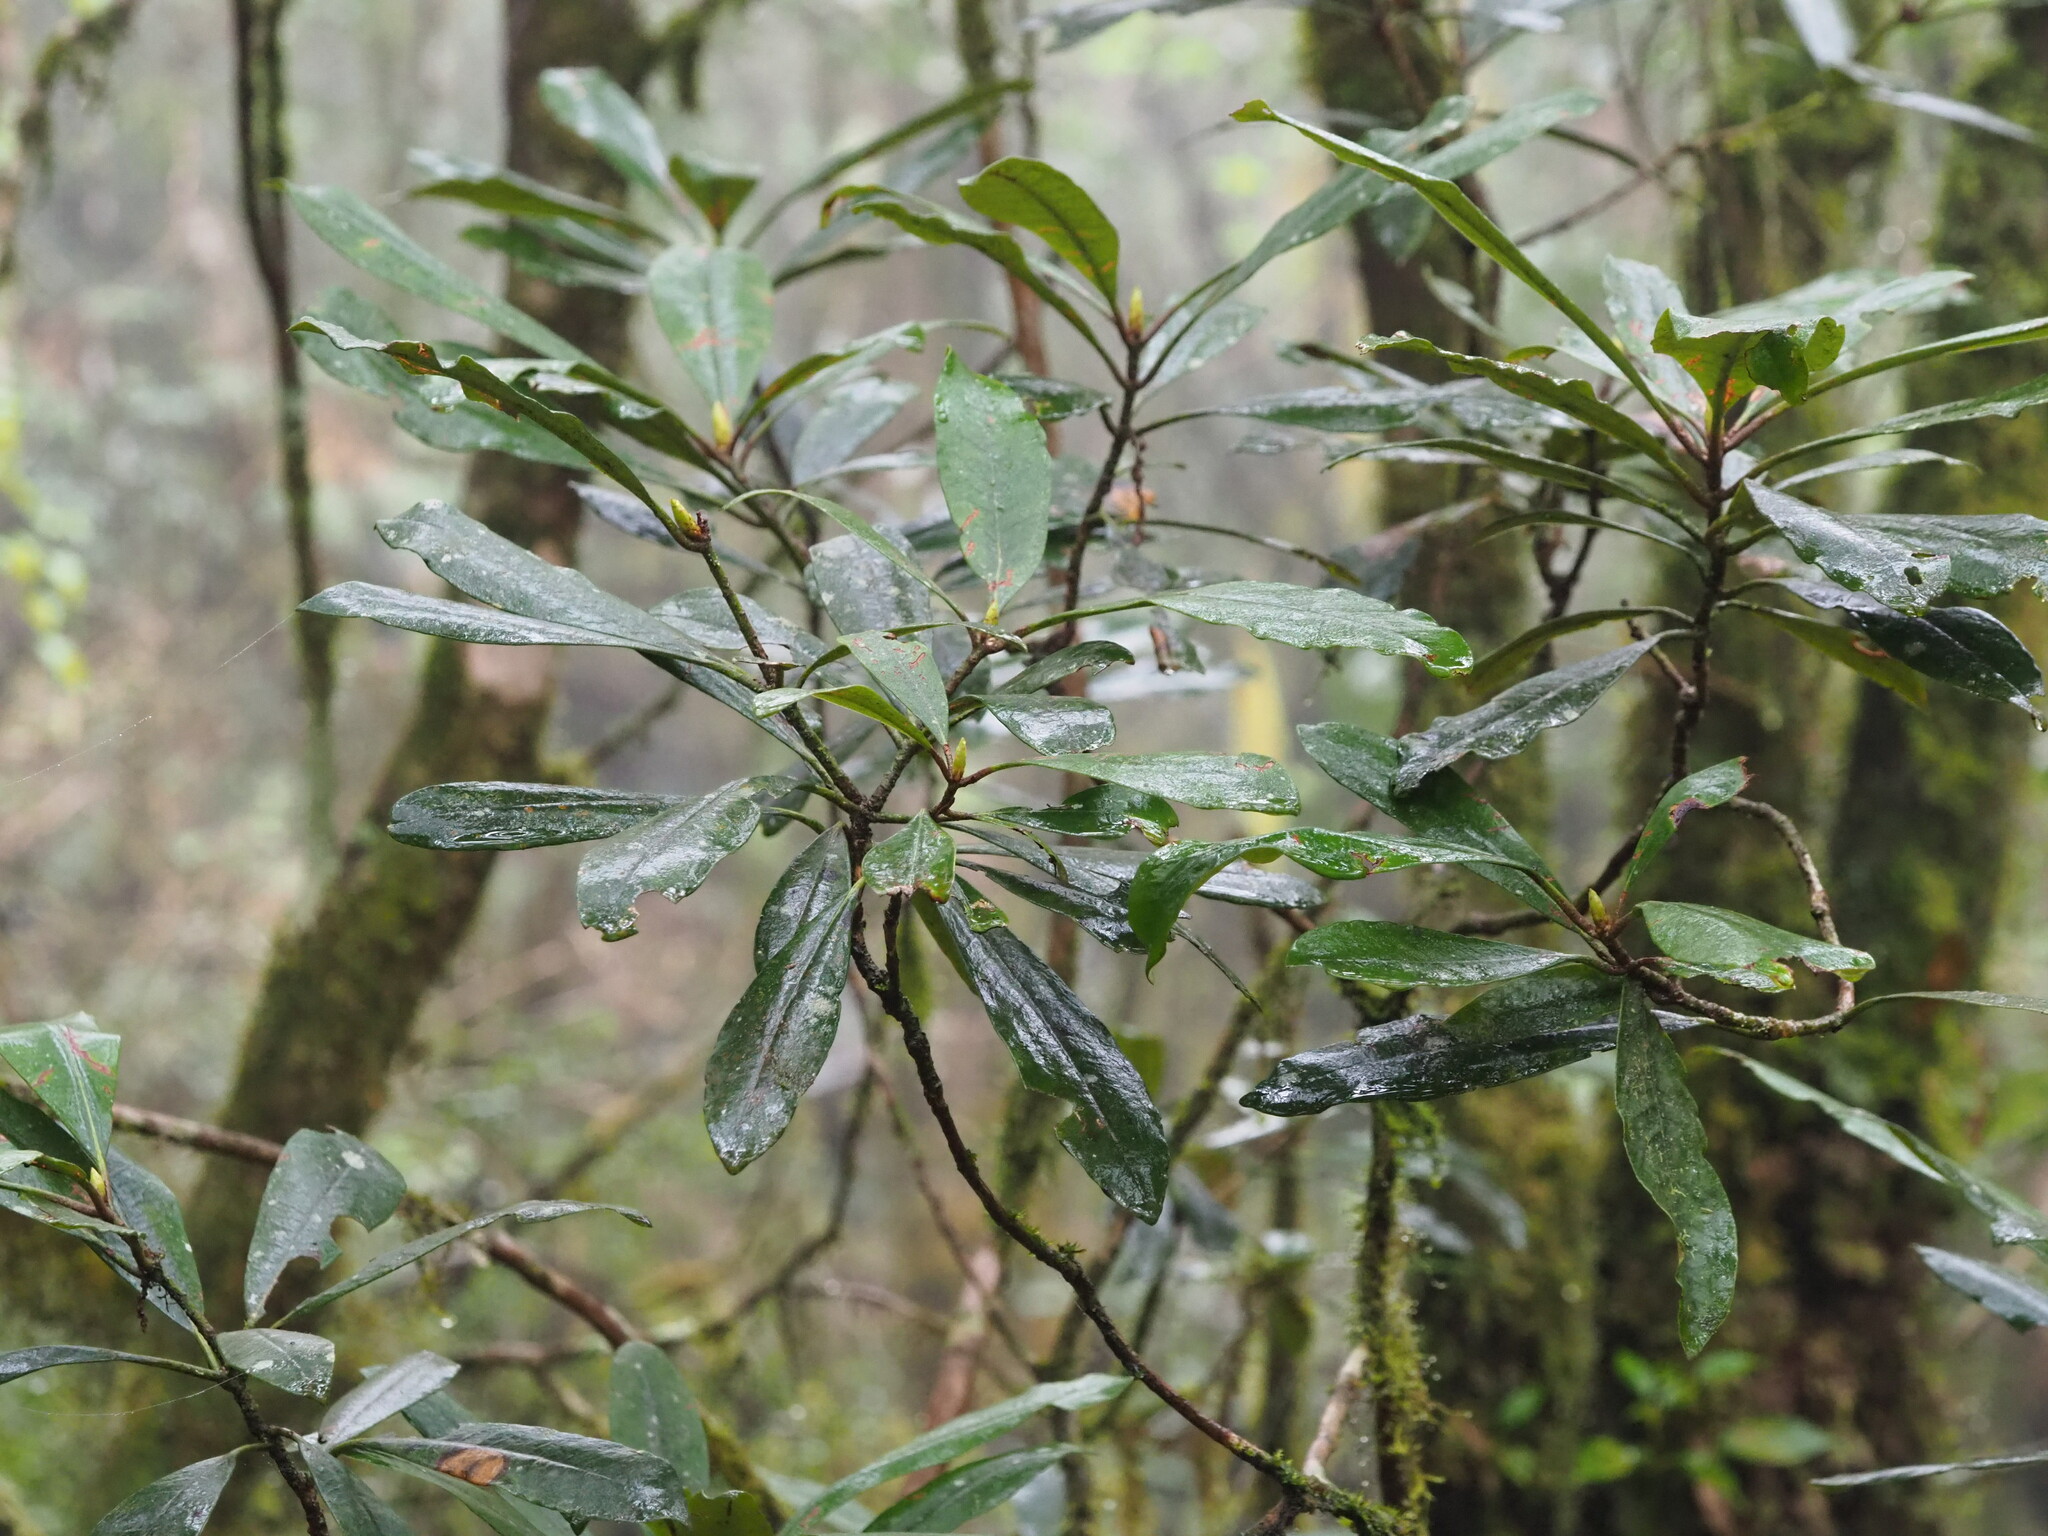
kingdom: Plantae
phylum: Tracheophyta
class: Magnoliopsida
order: Ericales
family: Ericaceae
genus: Rhododendron
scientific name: Rhododendron formosanum
